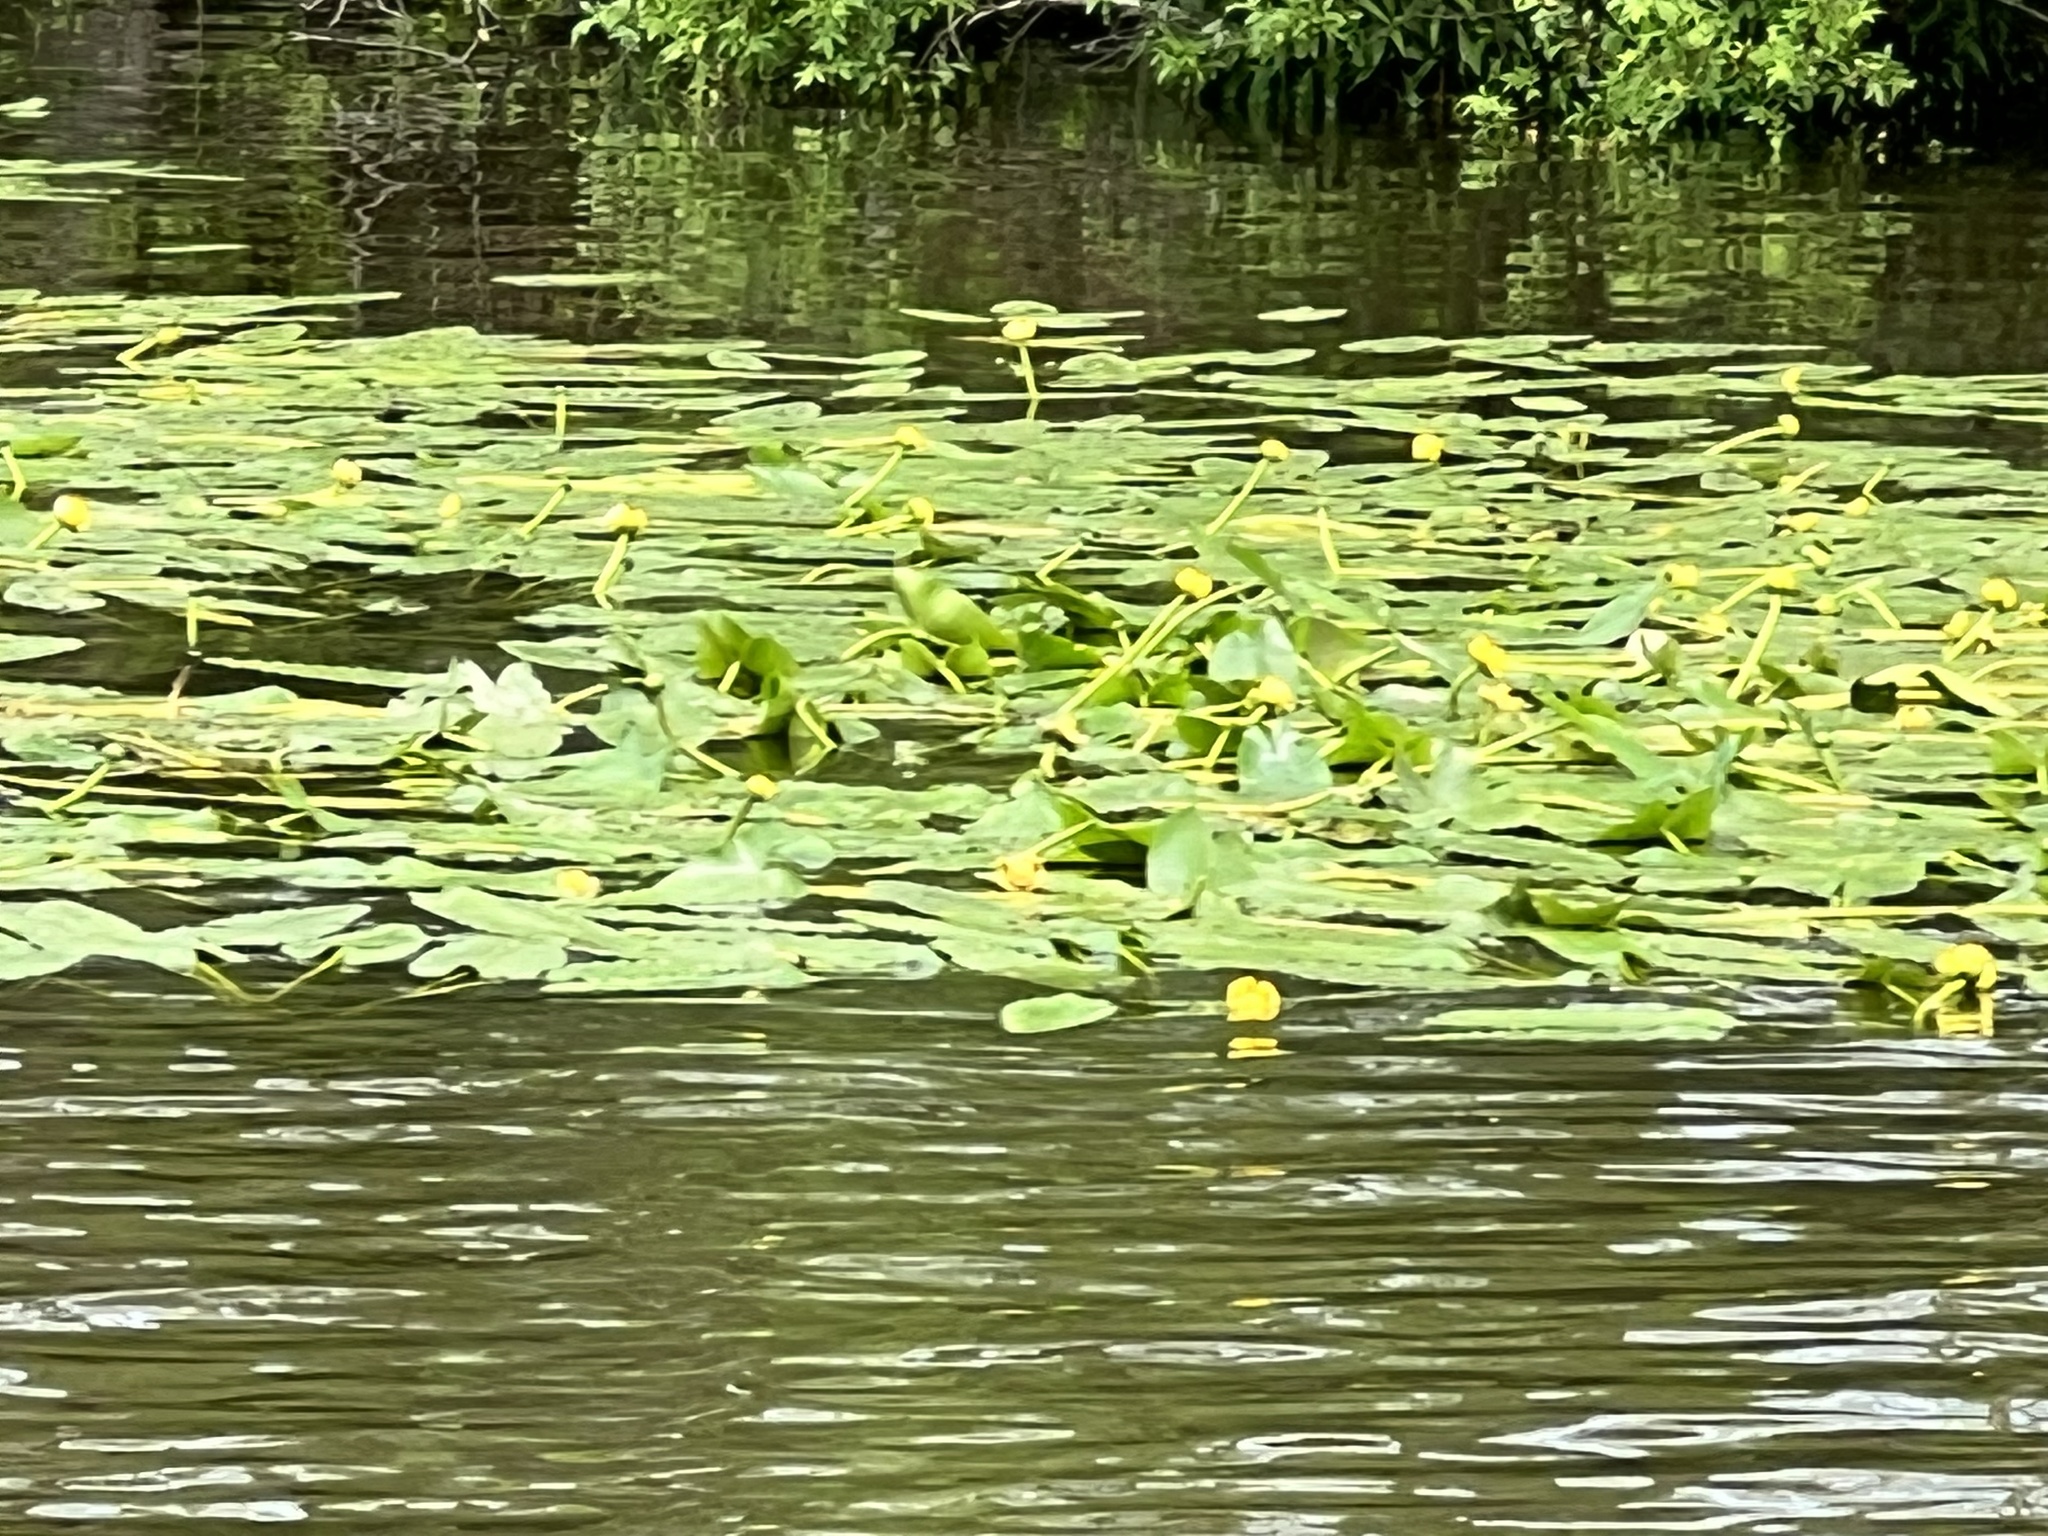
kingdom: Plantae
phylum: Tracheophyta
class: Magnoliopsida
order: Nymphaeales
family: Nymphaeaceae
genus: Nuphar
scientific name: Nuphar sagittifolia
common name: Cape fear spatterdock
